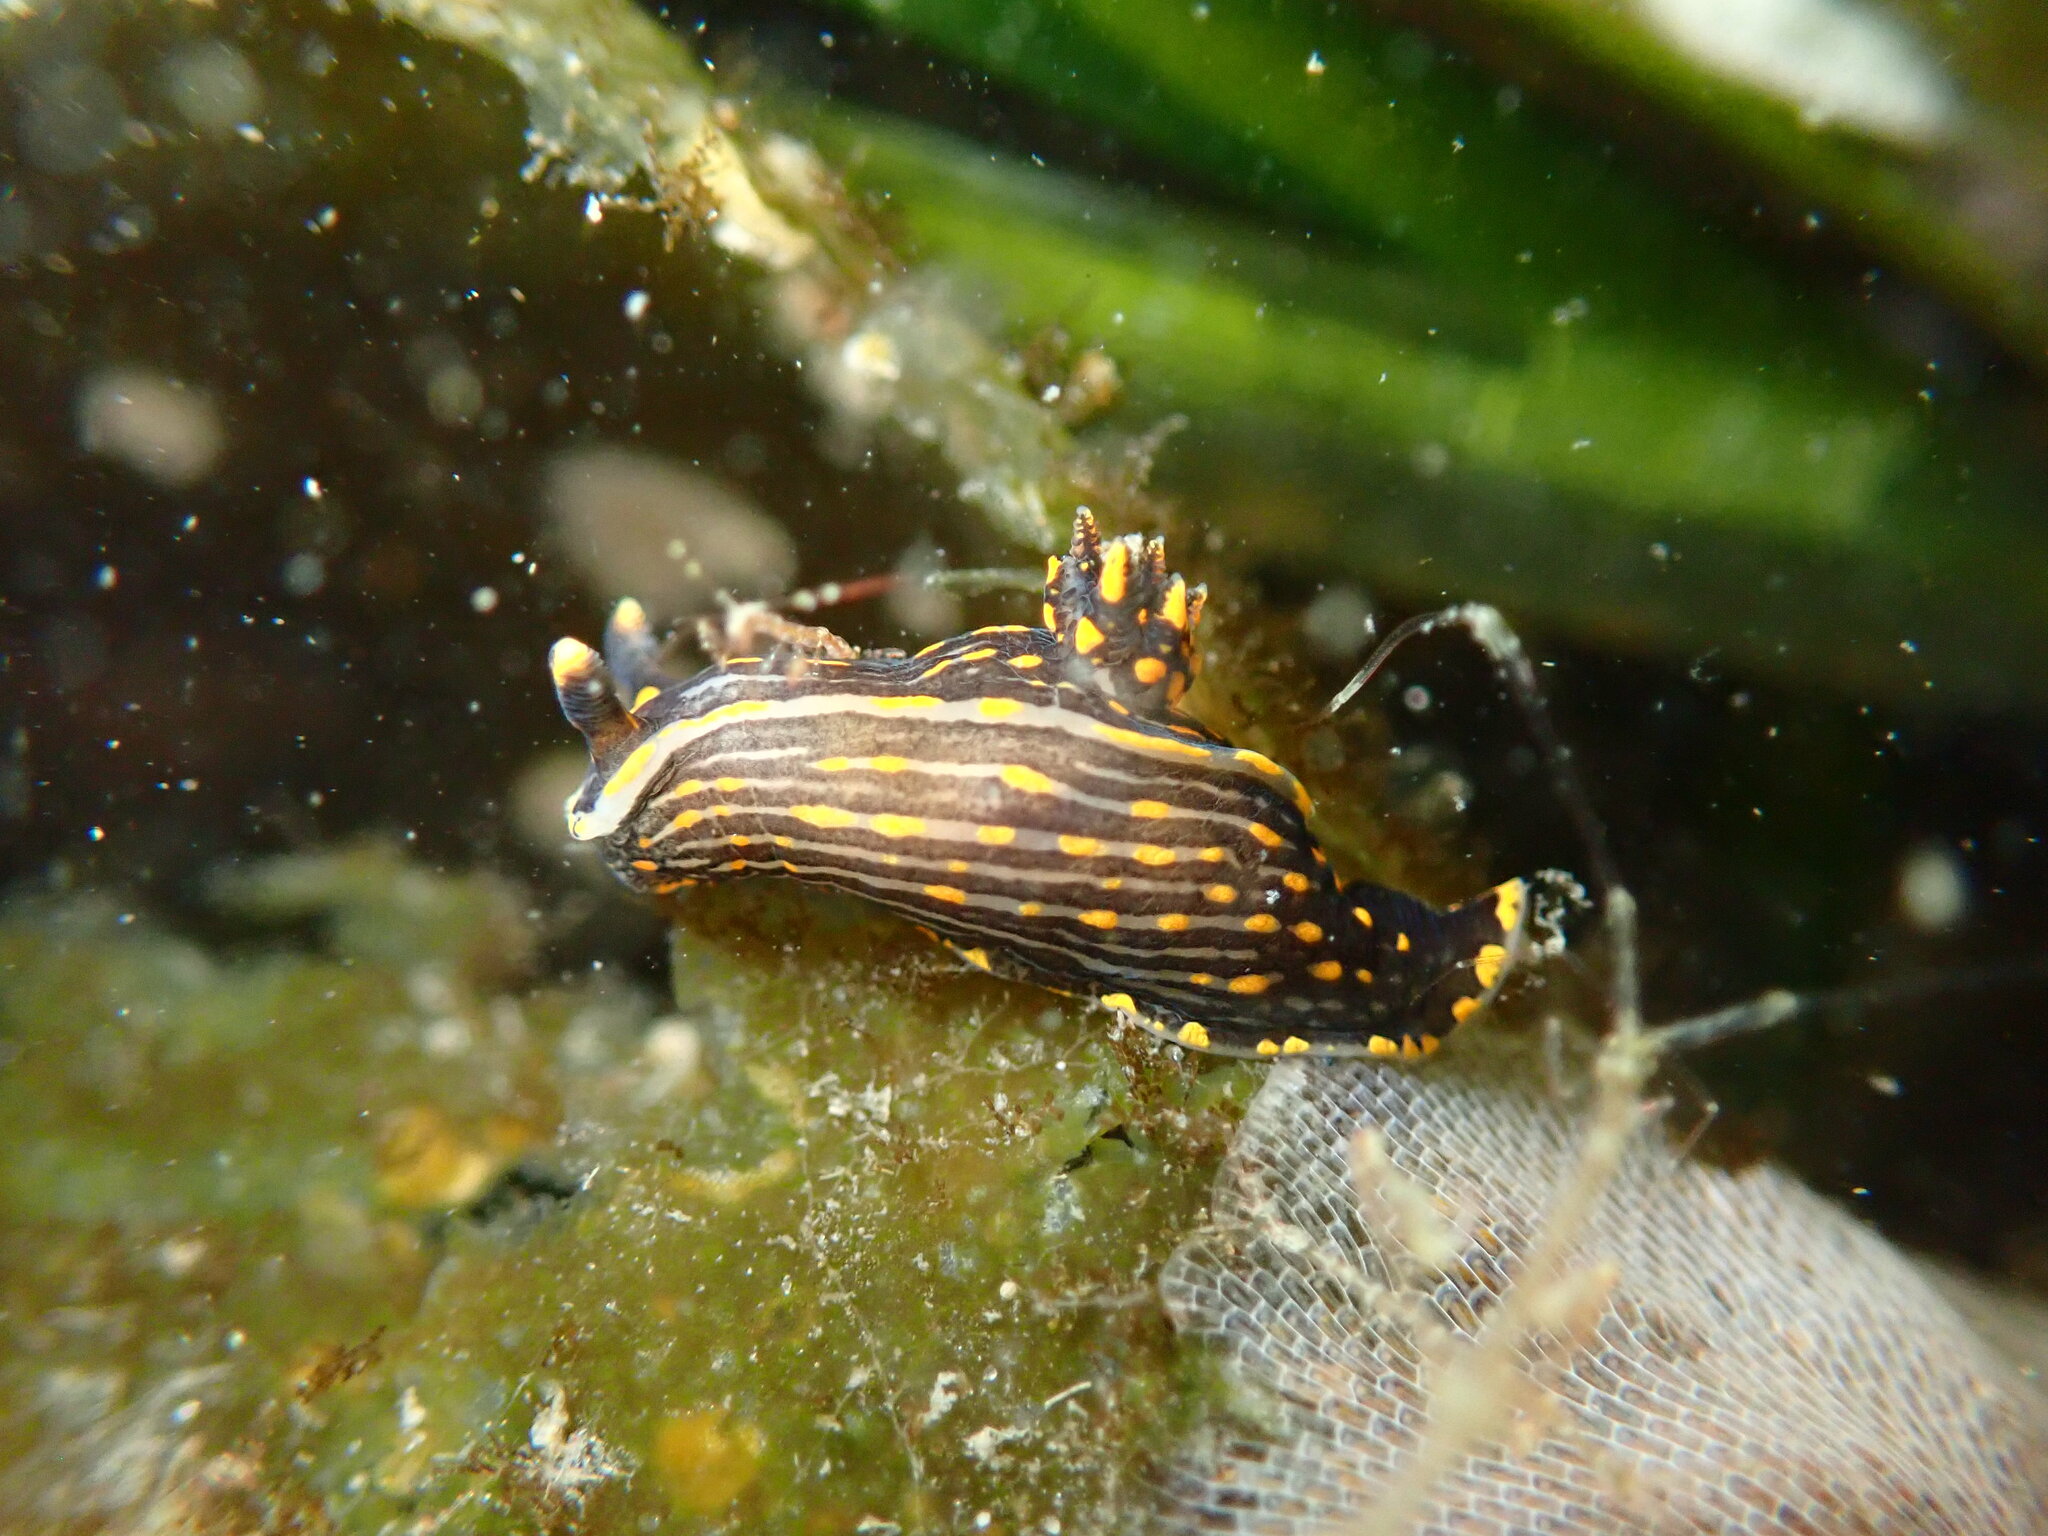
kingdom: Animalia
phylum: Mollusca
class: Gastropoda
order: Nudibranchia
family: Polyceridae
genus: Polycera
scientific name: Polycera atra
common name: Orange-spike polycera
